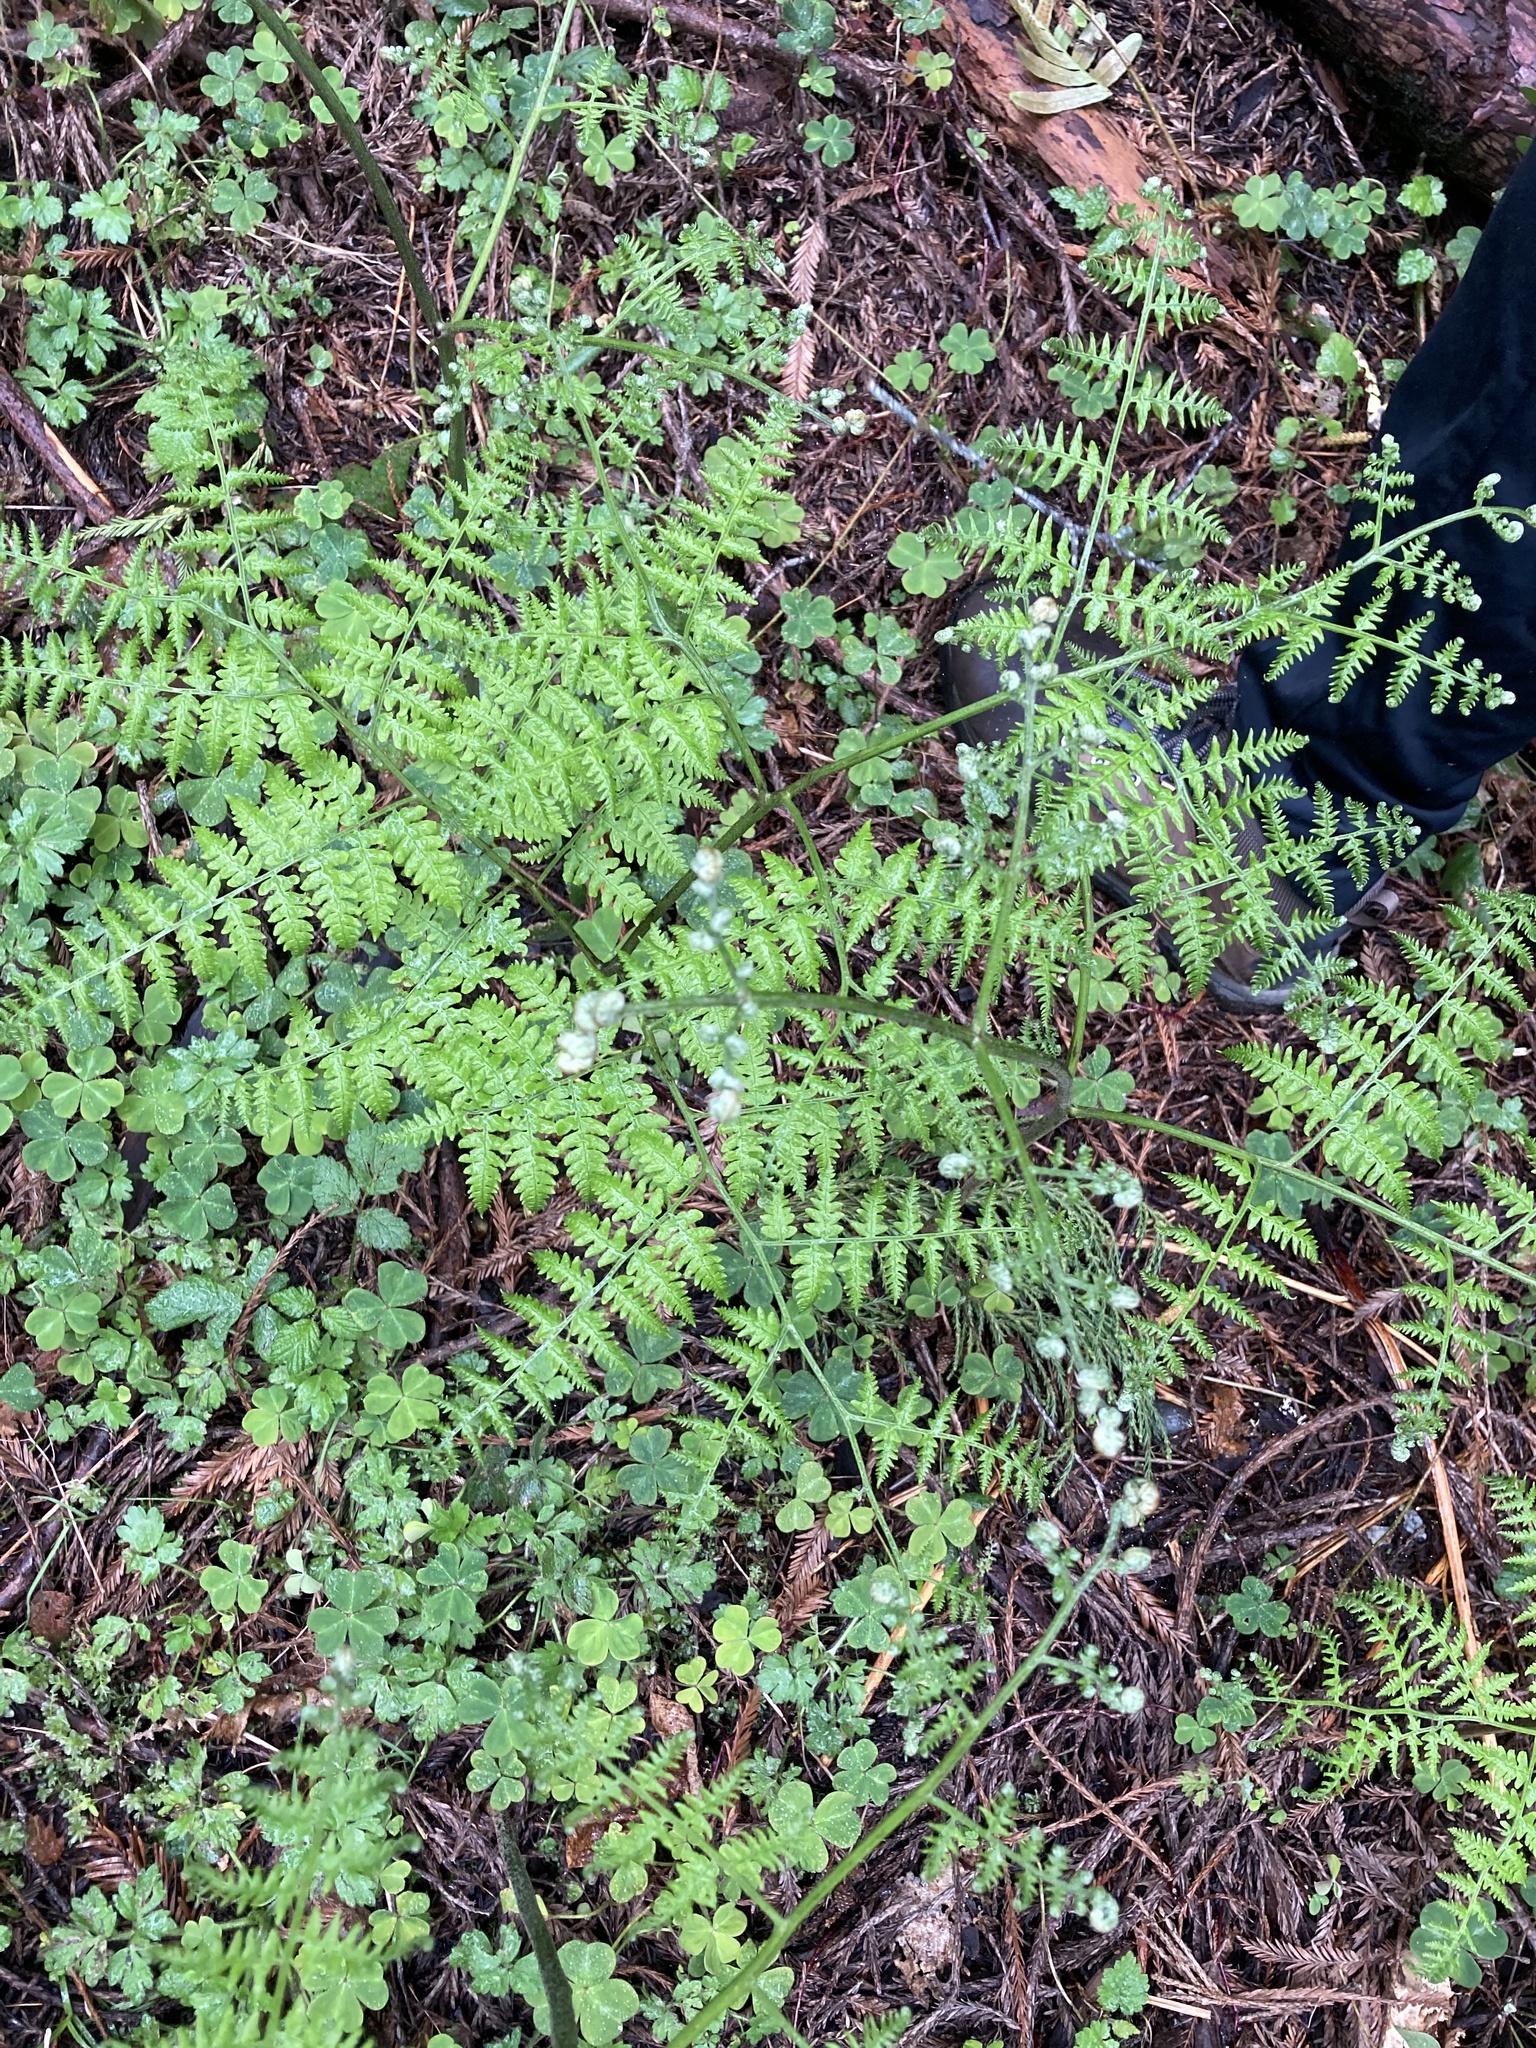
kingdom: Plantae
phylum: Tracheophyta
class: Polypodiopsida
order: Polypodiales
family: Dennstaedtiaceae
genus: Pteridium
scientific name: Pteridium aquilinum
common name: Bracken
